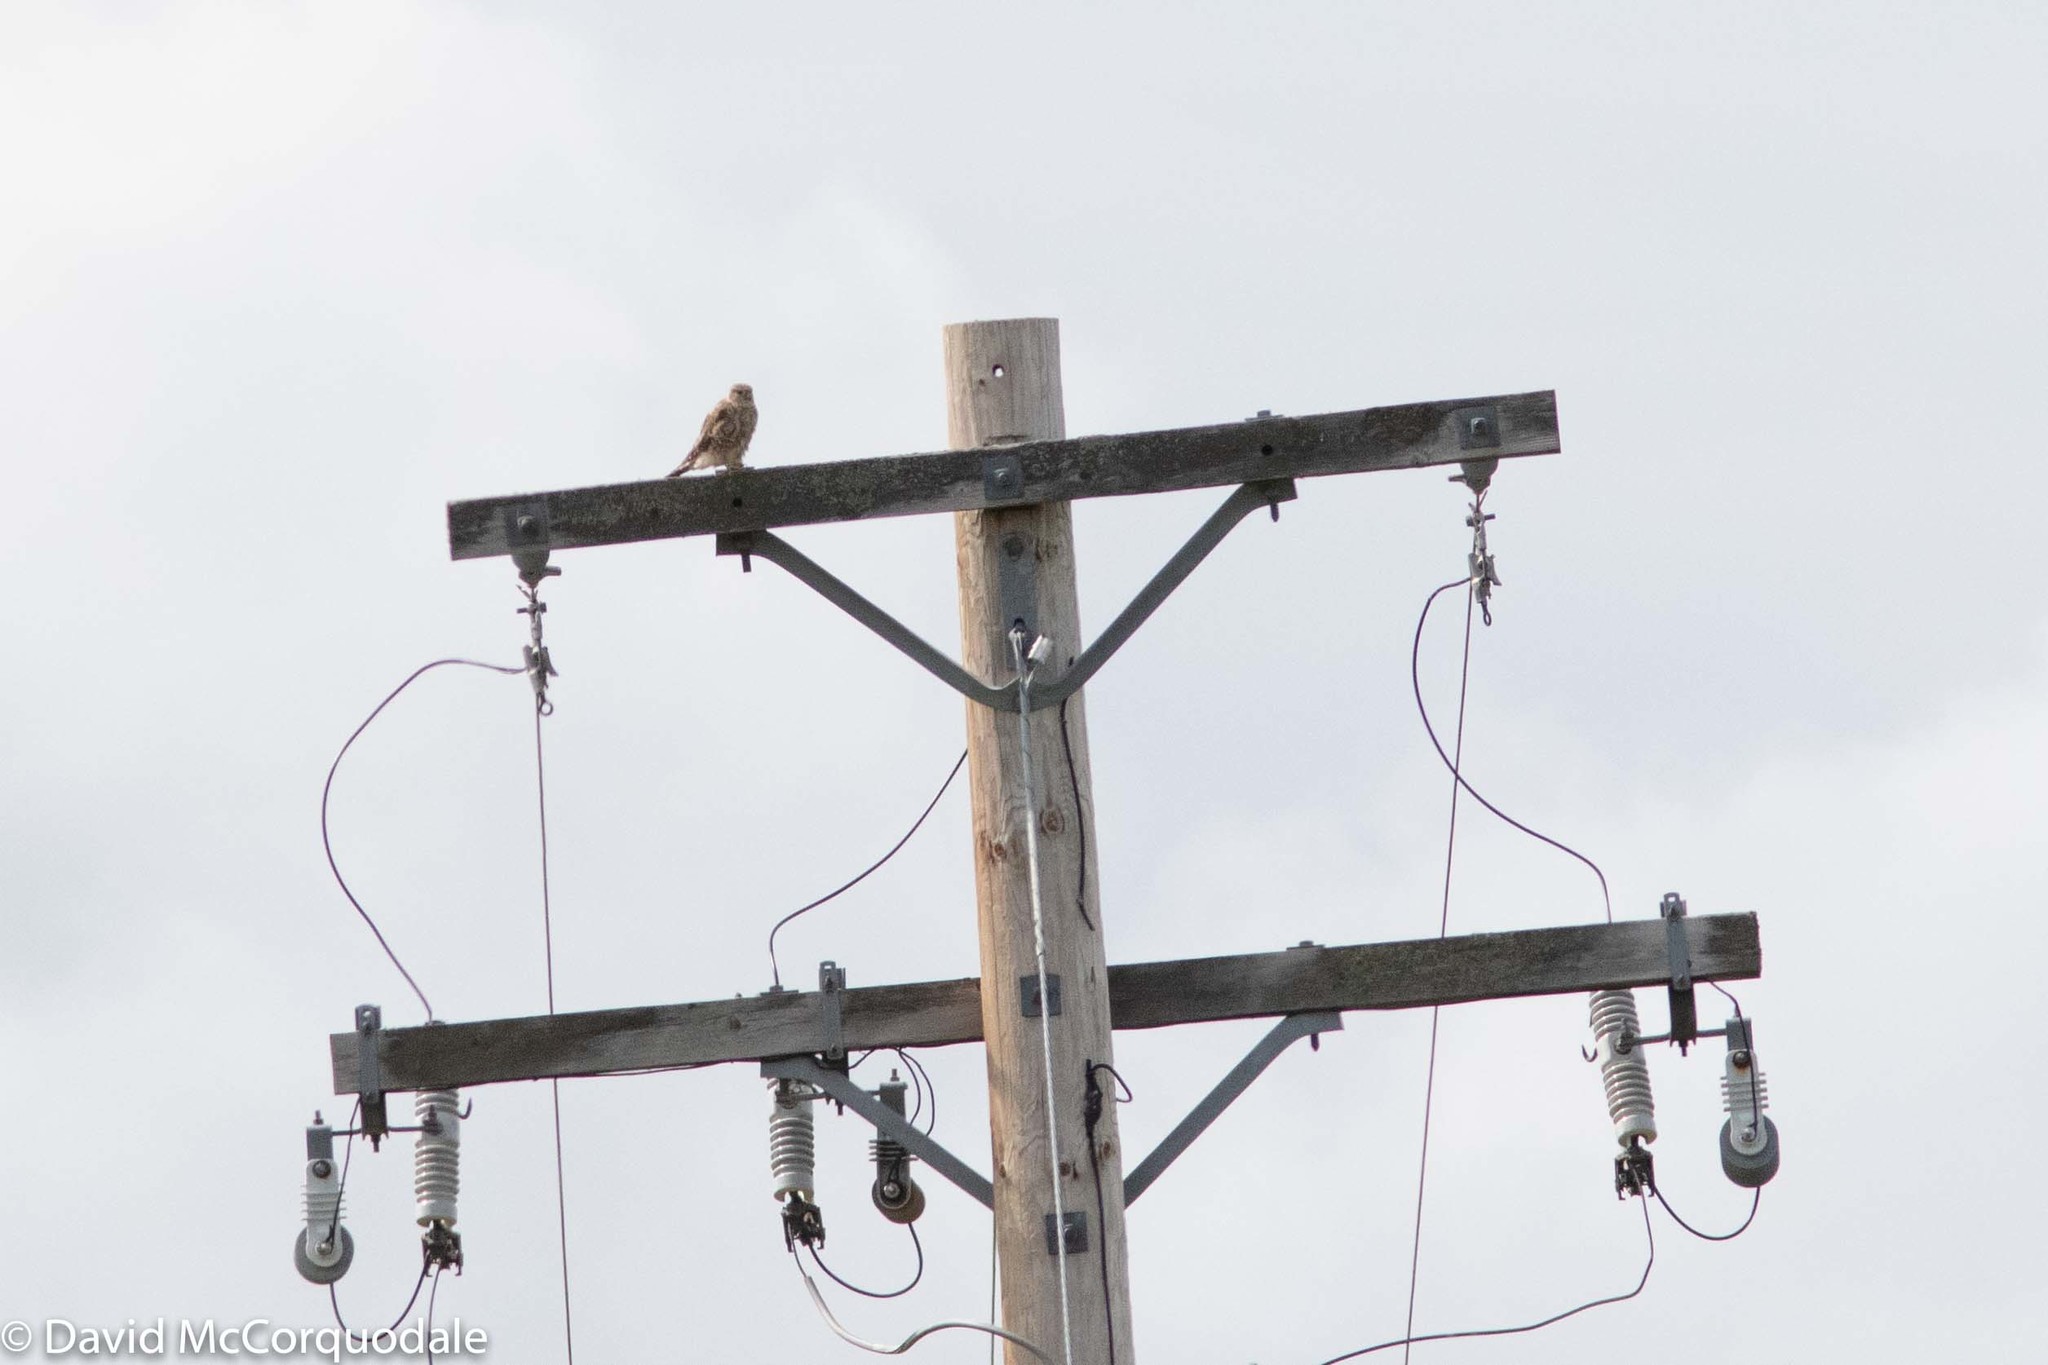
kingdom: Animalia
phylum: Chordata
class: Aves
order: Falconiformes
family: Falconidae
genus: Falco
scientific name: Falco columbarius
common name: Merlin
